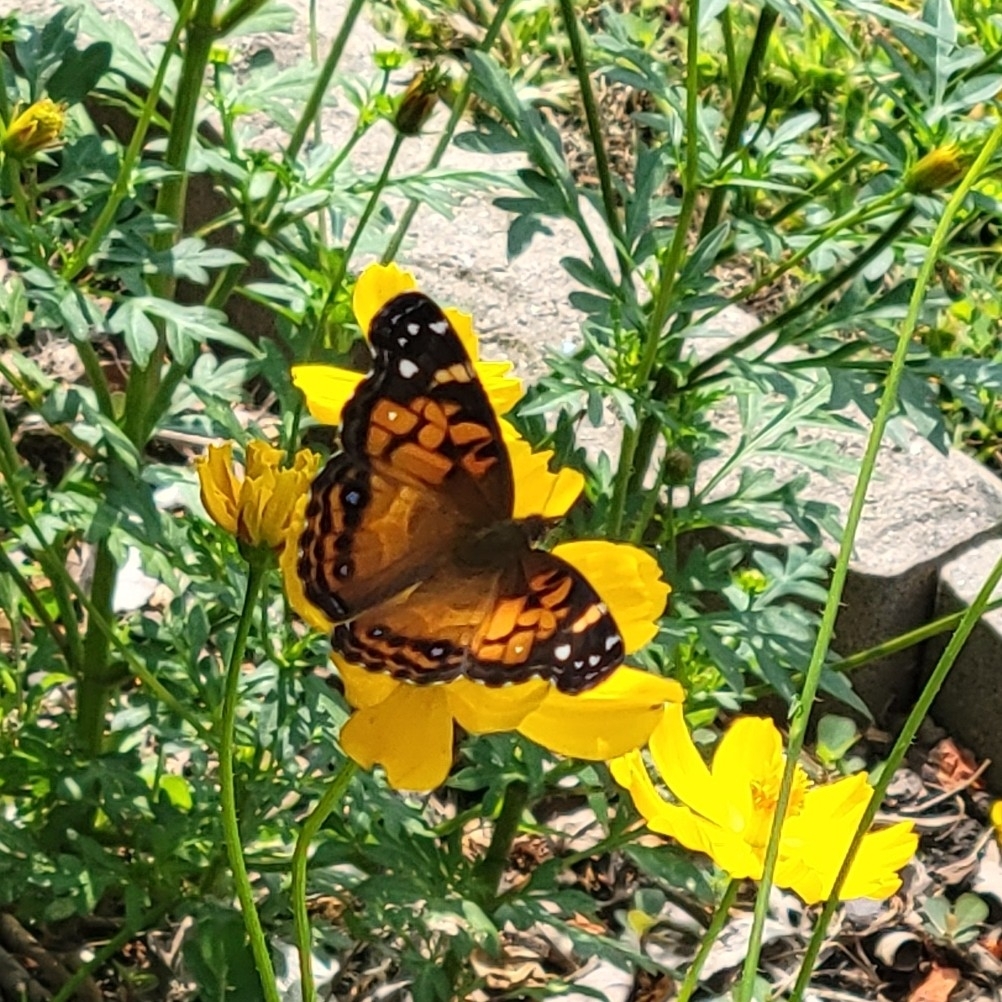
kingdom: Animalia
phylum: Arthropoda
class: Insecta
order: Lepidoptera
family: Nymphalidae
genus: Vanessa
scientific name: Vanessa virginiensis
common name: American lady
